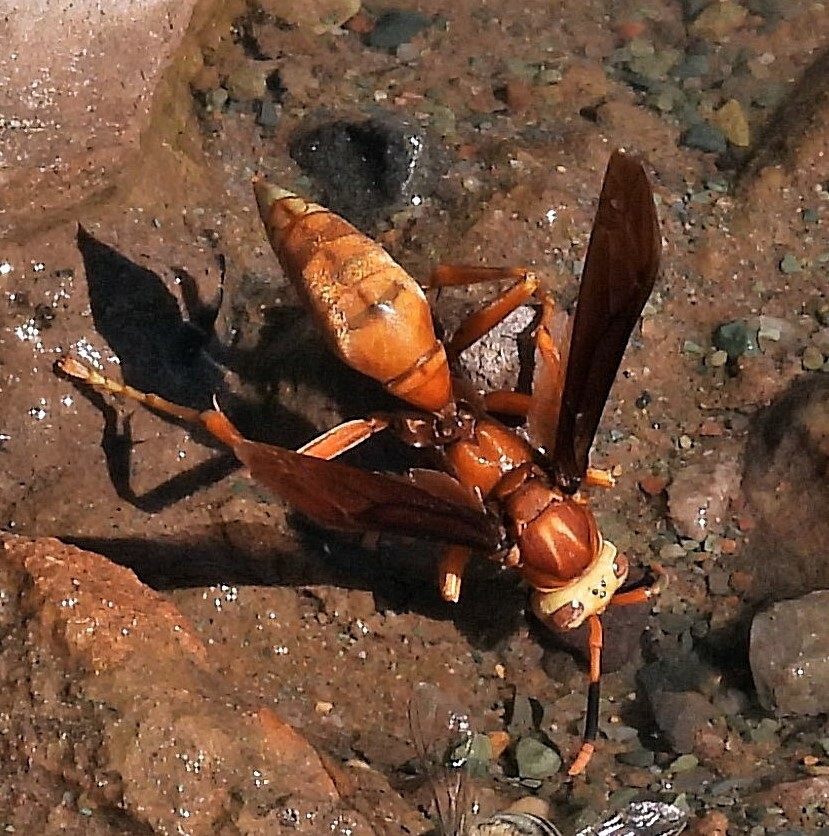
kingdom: Animalia
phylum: Arthropoda
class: Insecta
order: Hymenoptera
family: Eumenidae
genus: Polistes
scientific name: Polistes cavapyta
